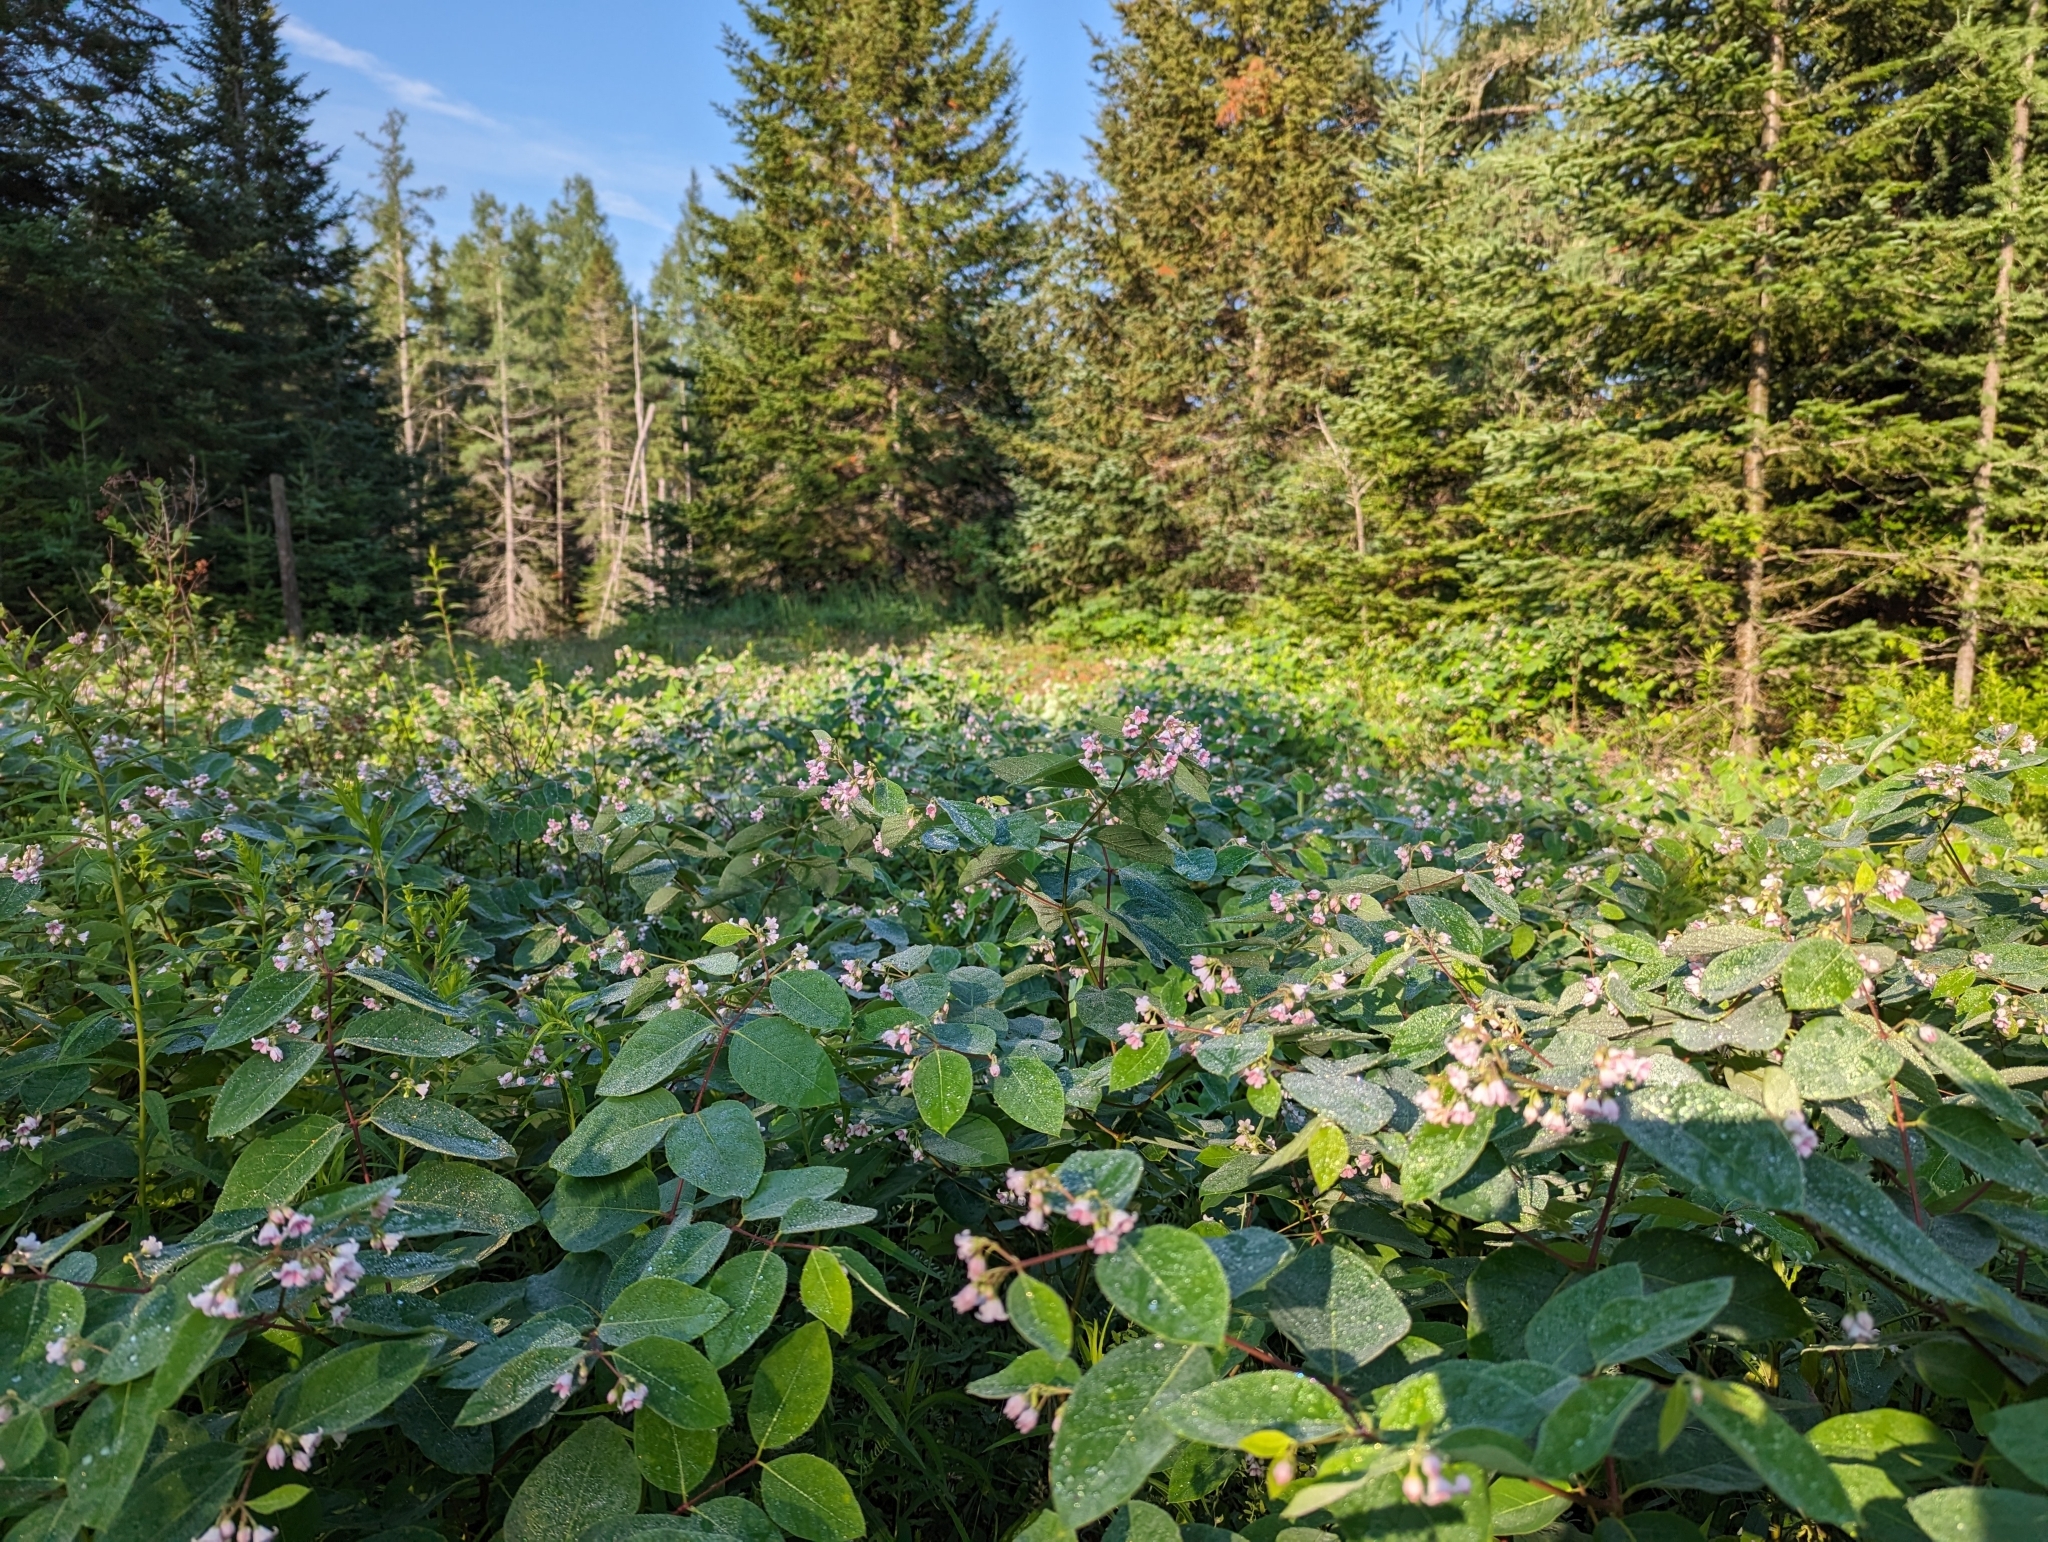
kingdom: Plantae
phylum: Tracheophyta
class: Magnoliopsida
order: Gentianales
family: Apocynaceae
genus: Apocynum
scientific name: Apocynum androsaemifolium
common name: Spreading dogbane
